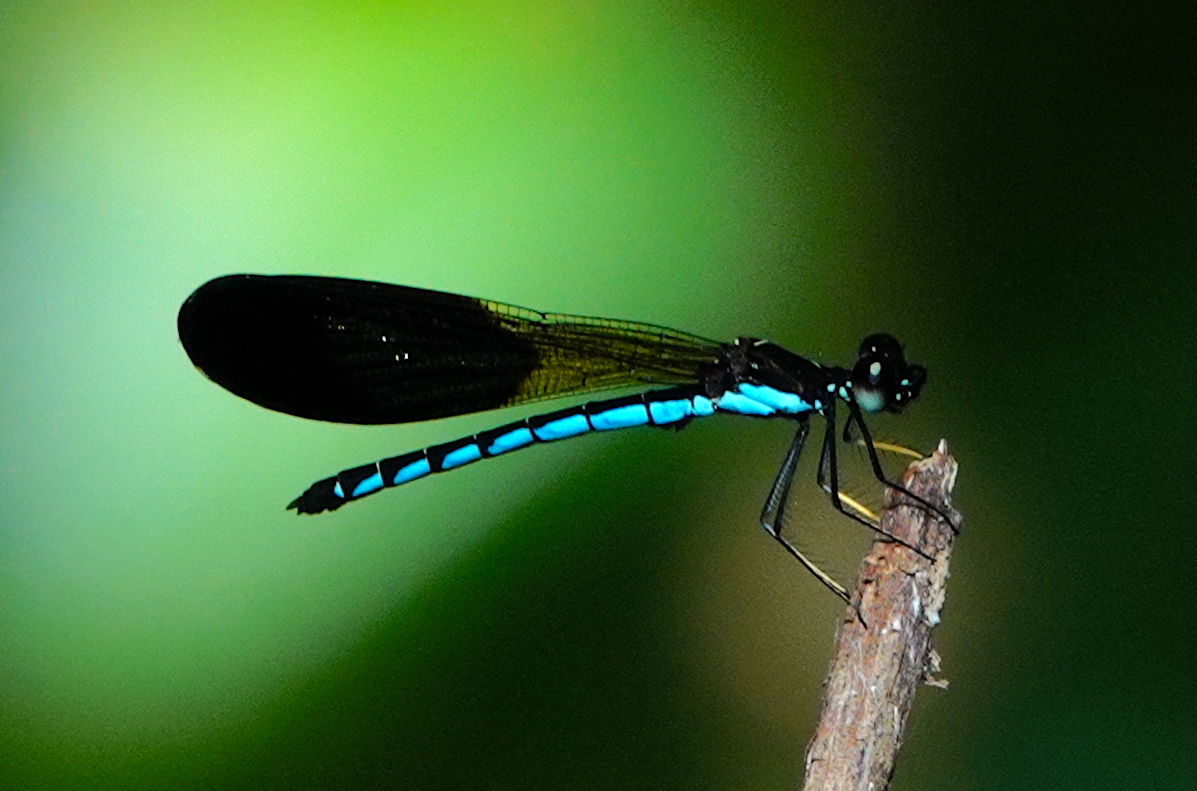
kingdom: Animalia
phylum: Arthropoda
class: Insecta
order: Odonata
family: Chlorocyphidae
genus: Rhinocypha
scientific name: Rhinocypha tincta
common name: Papuan jewel
